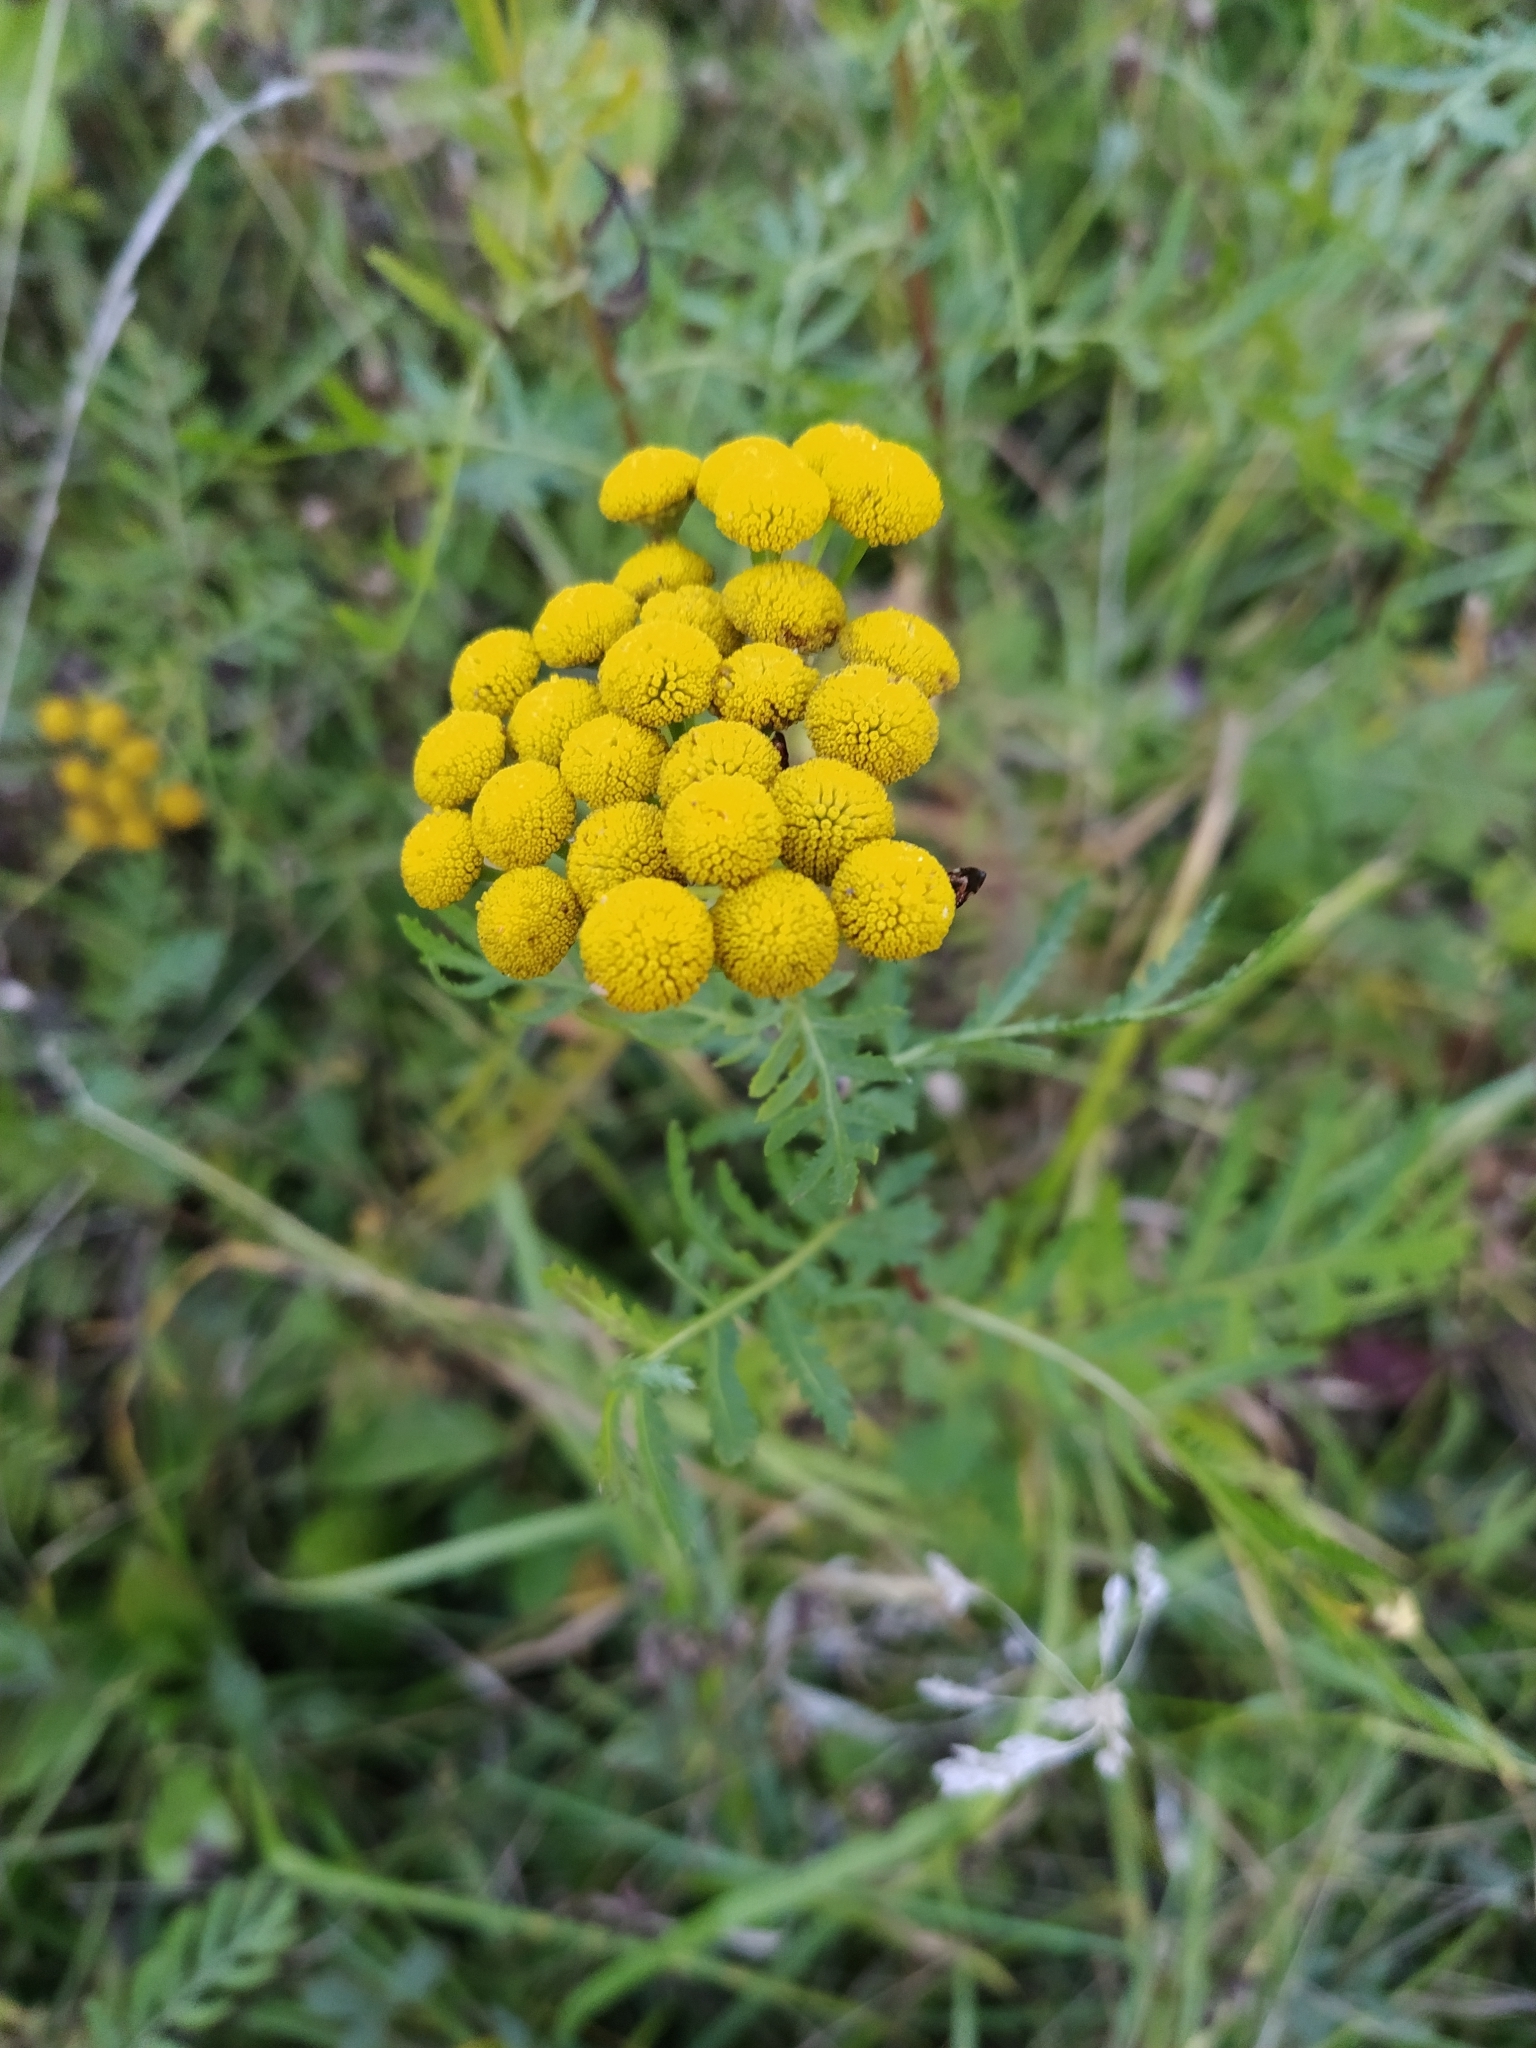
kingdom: Plantae
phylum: Tracheophyta
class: Magnoliopsida
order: Asterales
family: Asteraceae
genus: Tanacetum
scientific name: Tanacetum vulgare
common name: Common tansy
